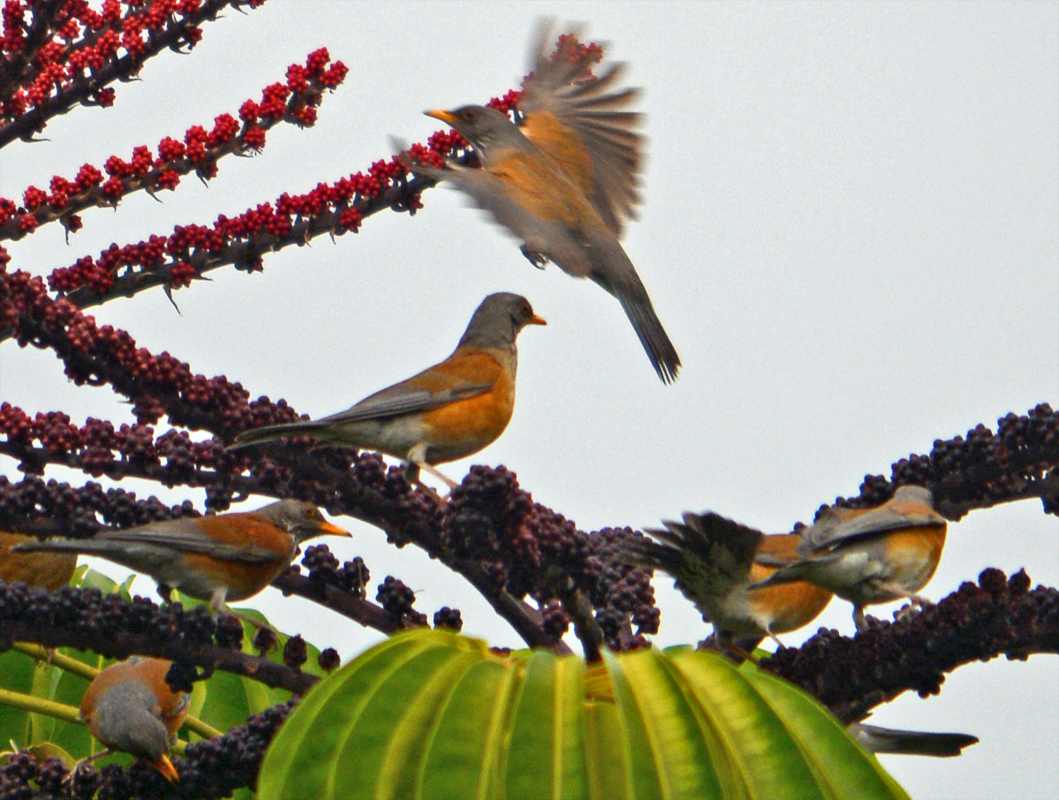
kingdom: Animalia
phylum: Chordata
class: Aves
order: Passeriformes
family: Turdidae
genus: Turdus
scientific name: Turdus rufopalliatus
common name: Rufous-backed robin
